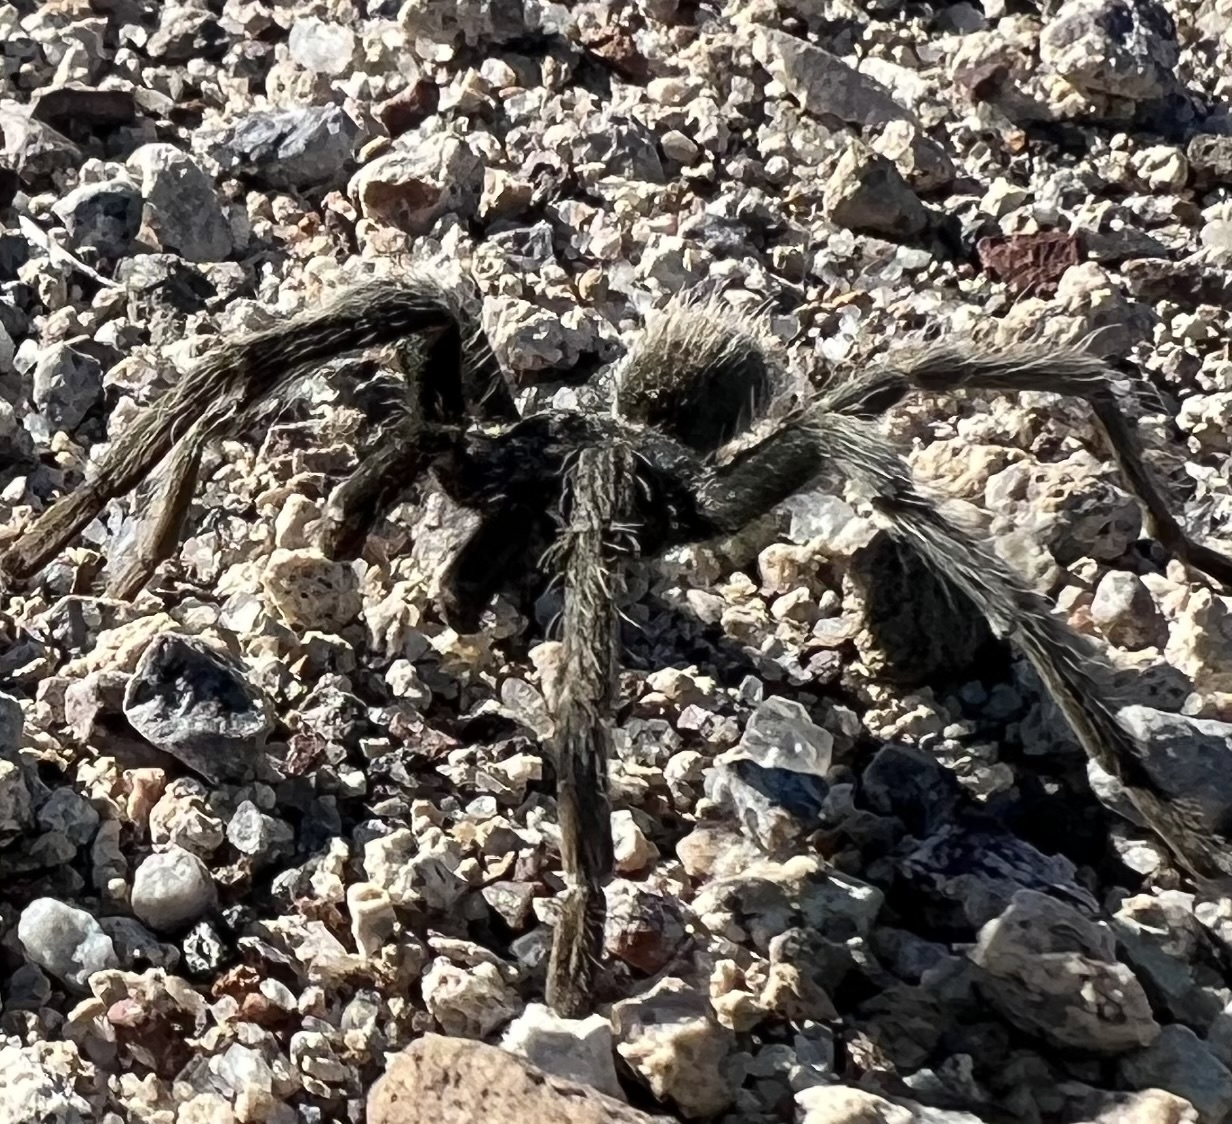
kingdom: Animalia
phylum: Arthropoda
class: Arachnida
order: Araneae
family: Theraphosidae
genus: Aphonopelma
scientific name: Aphonopelma iodius
